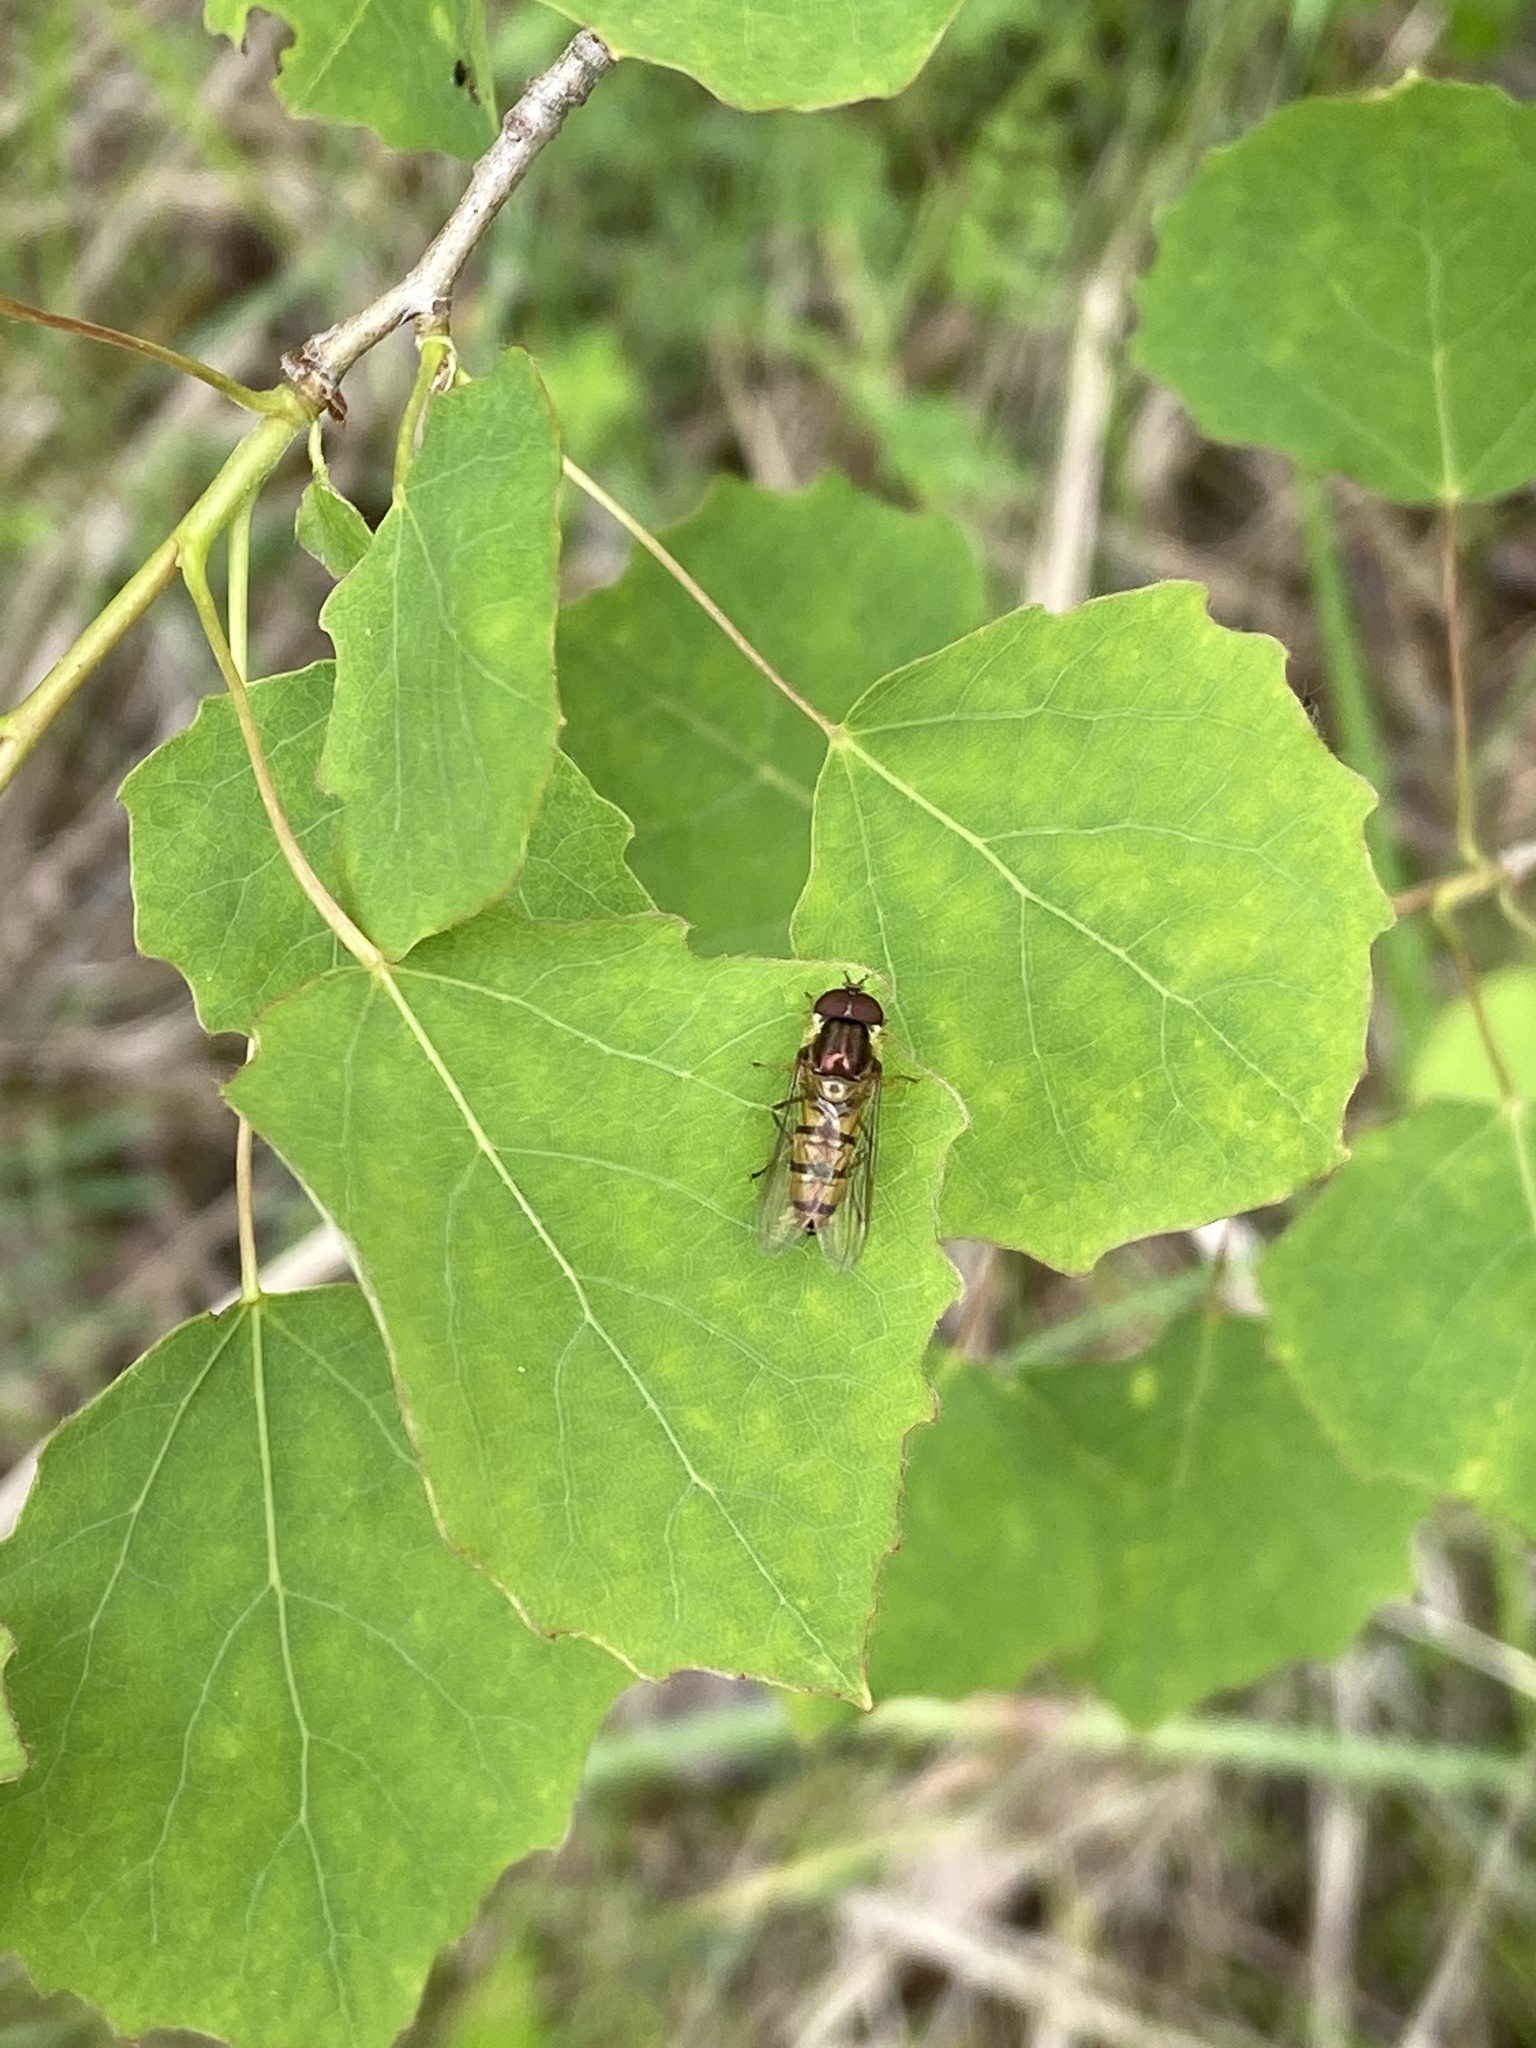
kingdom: Animalia
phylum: Arthropoda
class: Insecta
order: Diptera
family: Syrphidae
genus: Episyrphus
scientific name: Episyrphus balteatus
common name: Marmalade hoverfly
